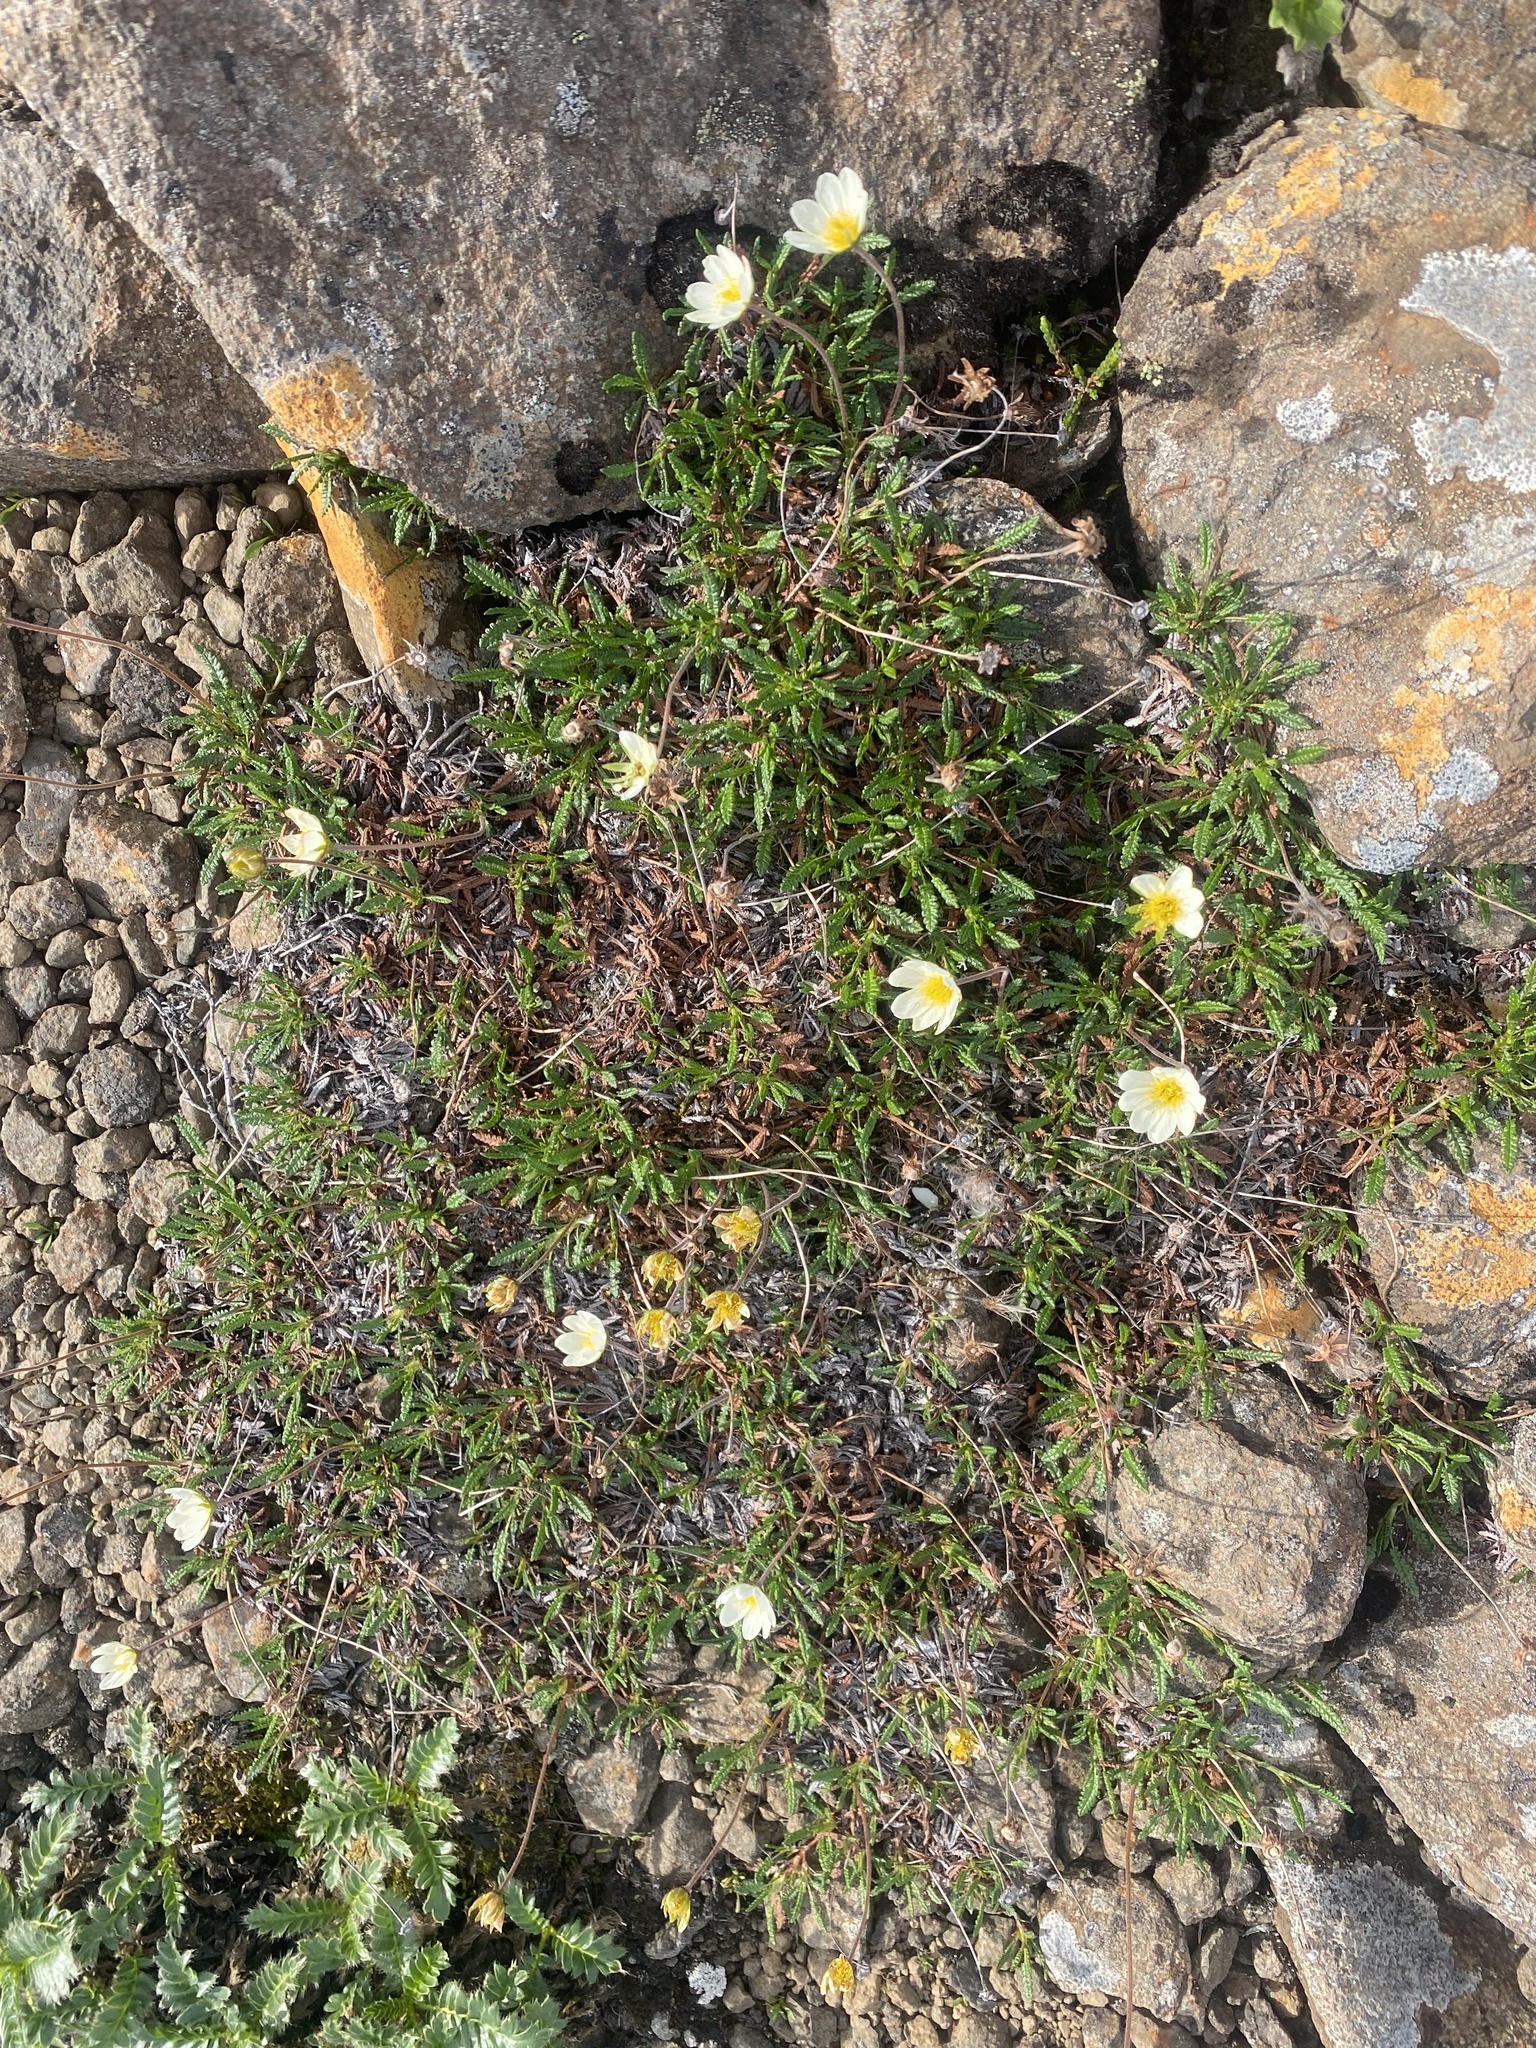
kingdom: Plantae
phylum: Tracheophyta
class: Magnoliopsida
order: Rosales
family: Rosaceae
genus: Dryas
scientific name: Dryas octopetala
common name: Eight-petal mountain-avens
